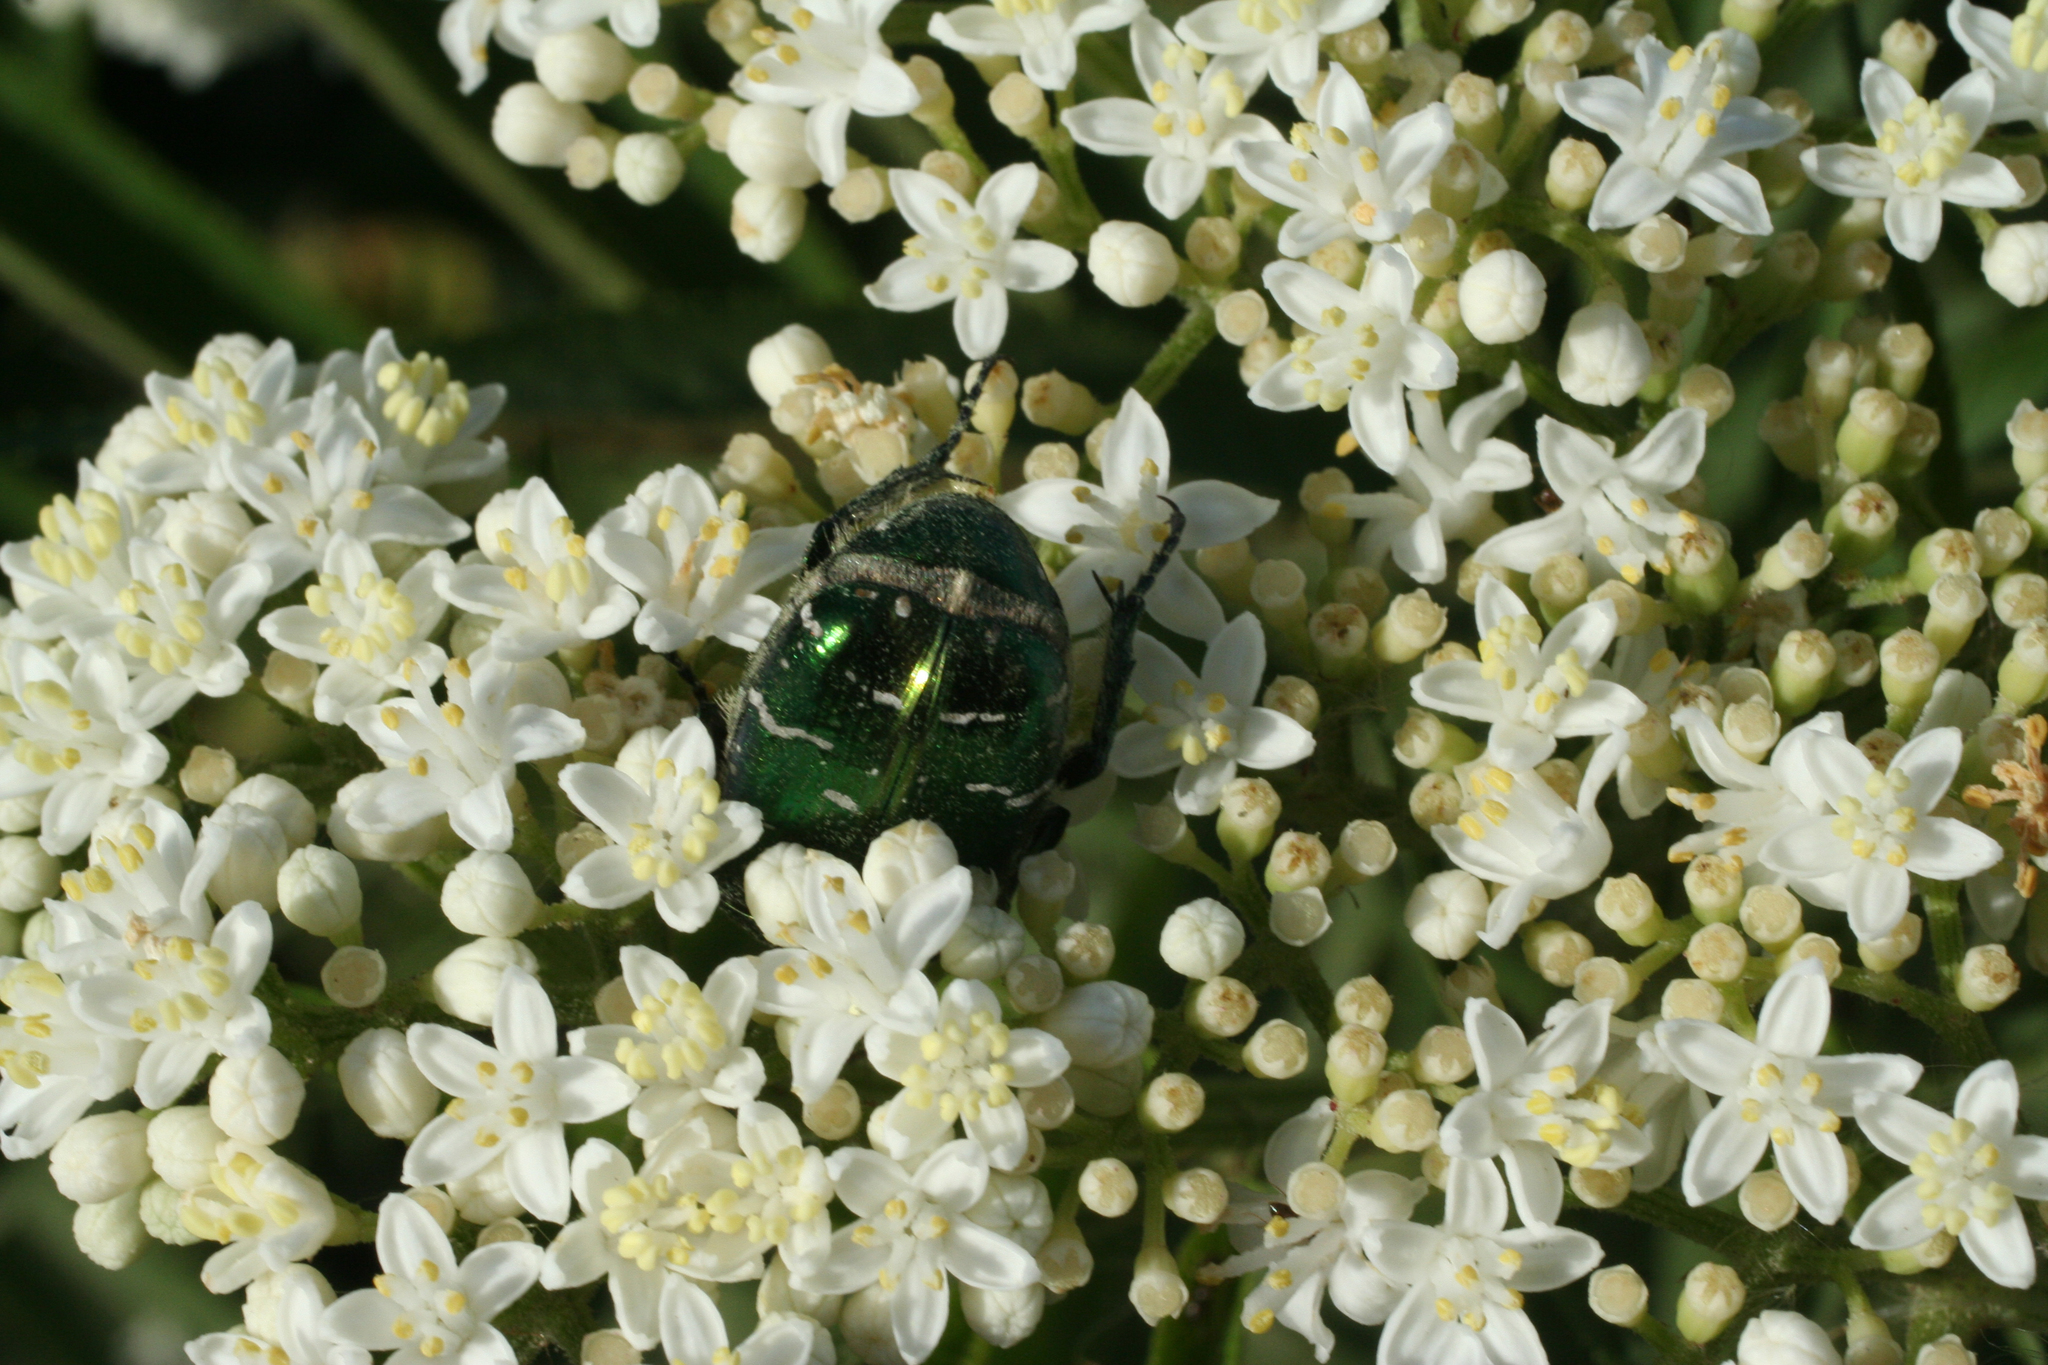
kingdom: Animalia
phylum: Arthropoda
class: Insecta
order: Coleoptera
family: Scarabaeidae
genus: Cetonia
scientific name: Cetonia aurata
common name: Rose chafer
